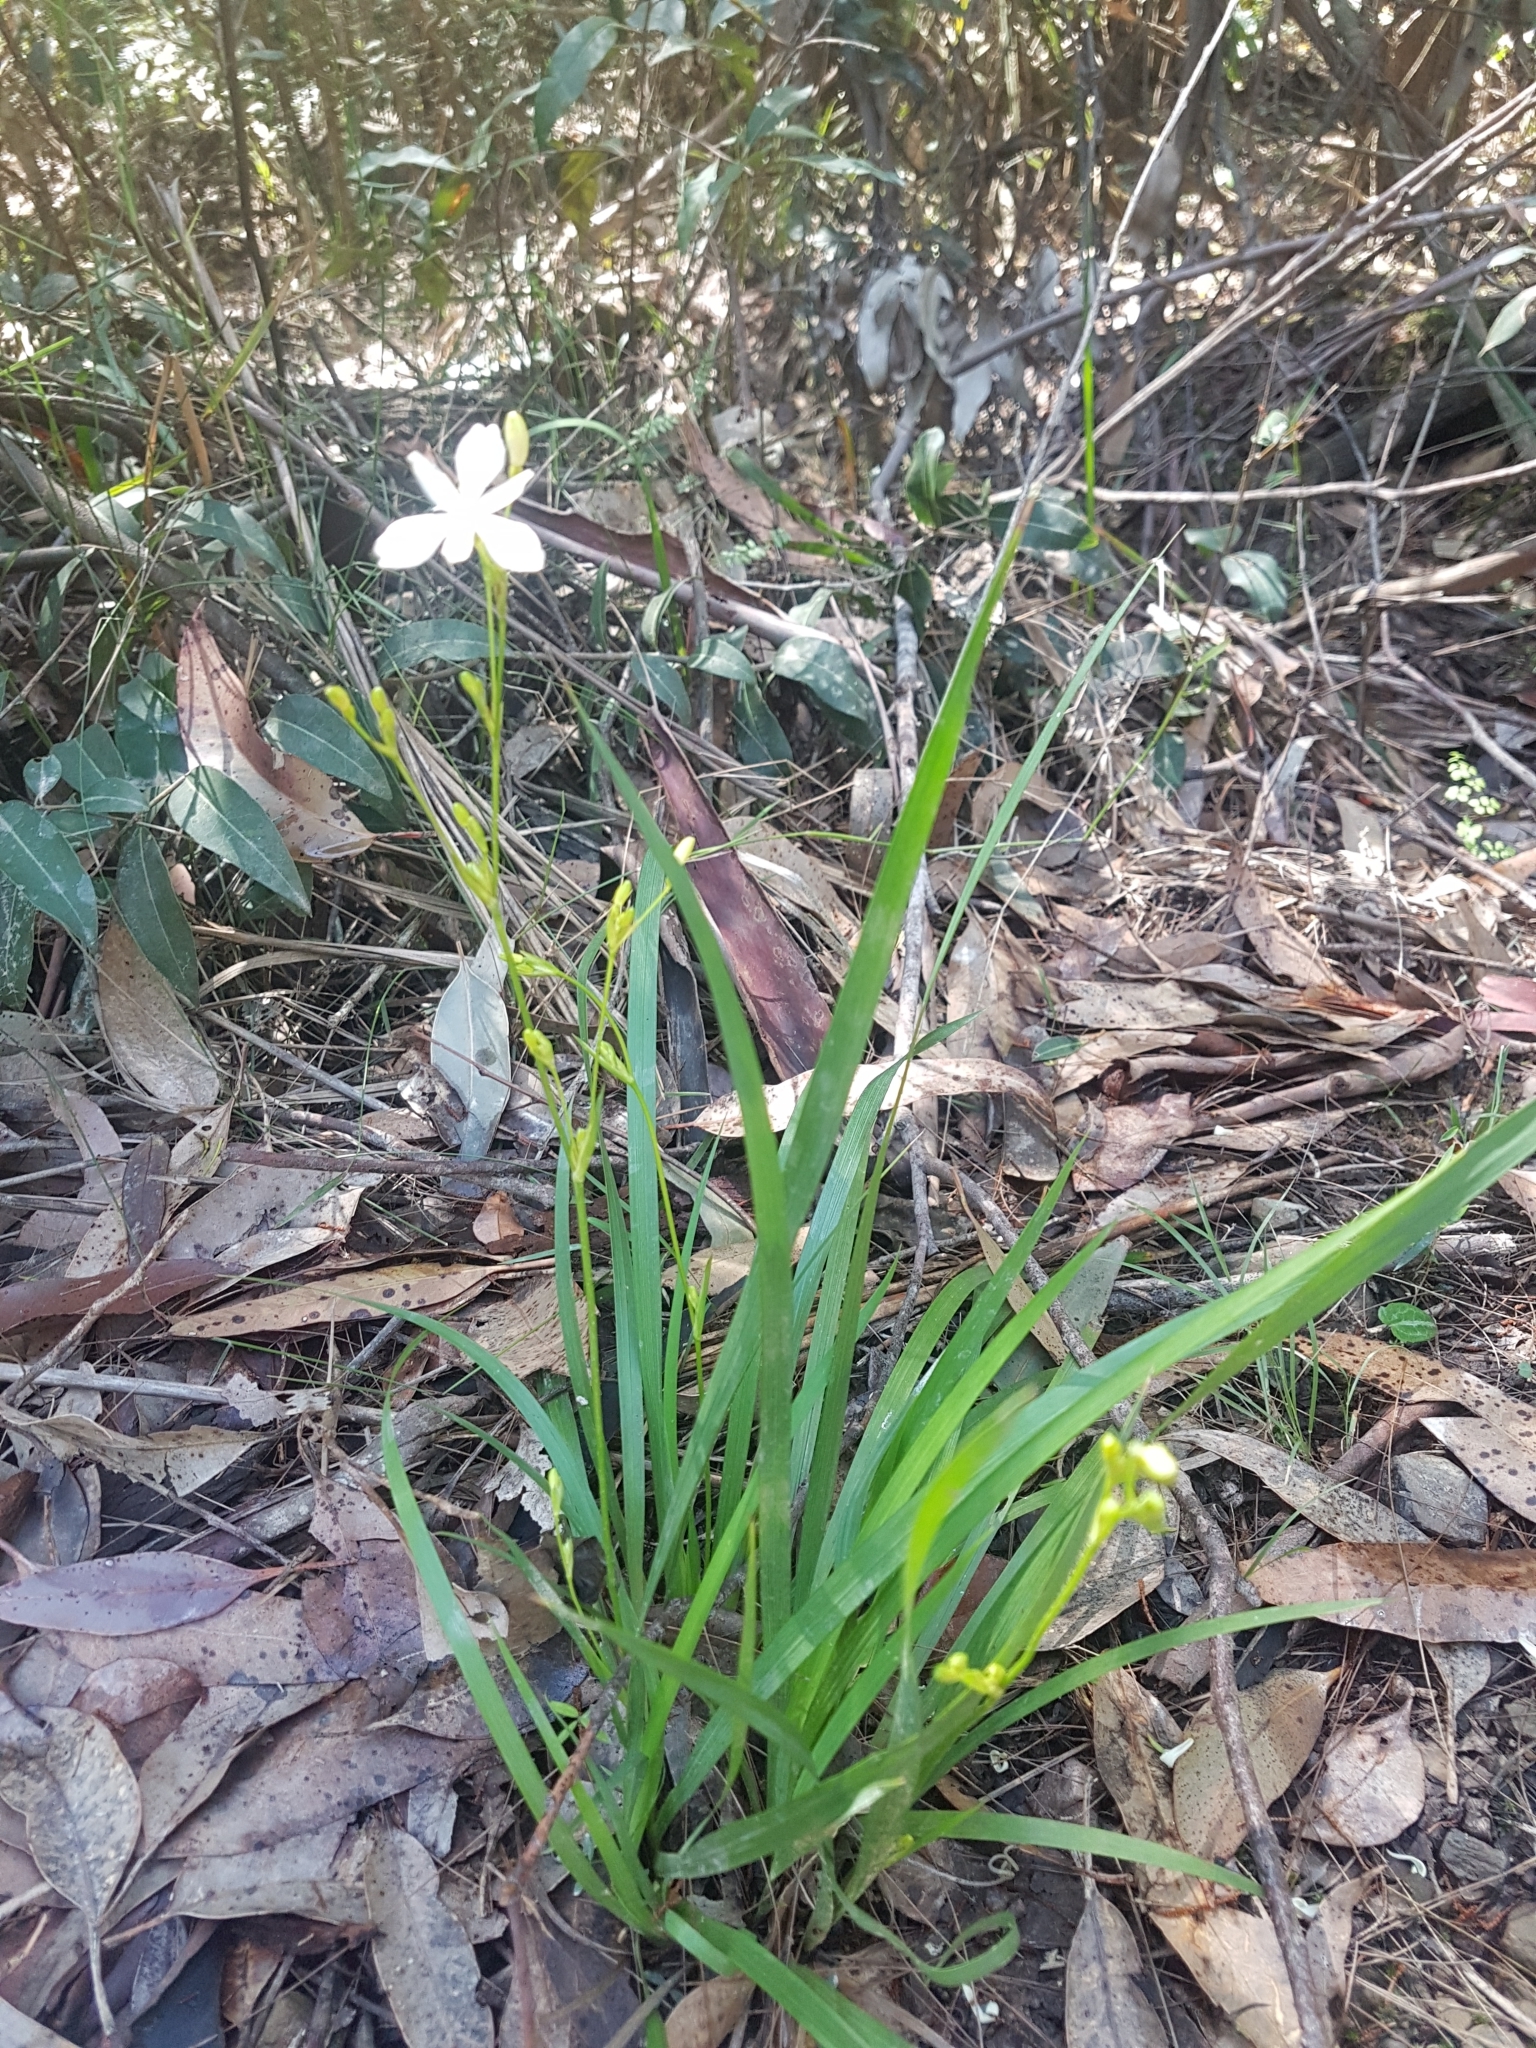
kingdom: Plantae
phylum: Tracheophyta
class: Liliopsida
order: Asparagales
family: Iridaceae
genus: Libertia
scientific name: Libertia paniculata
